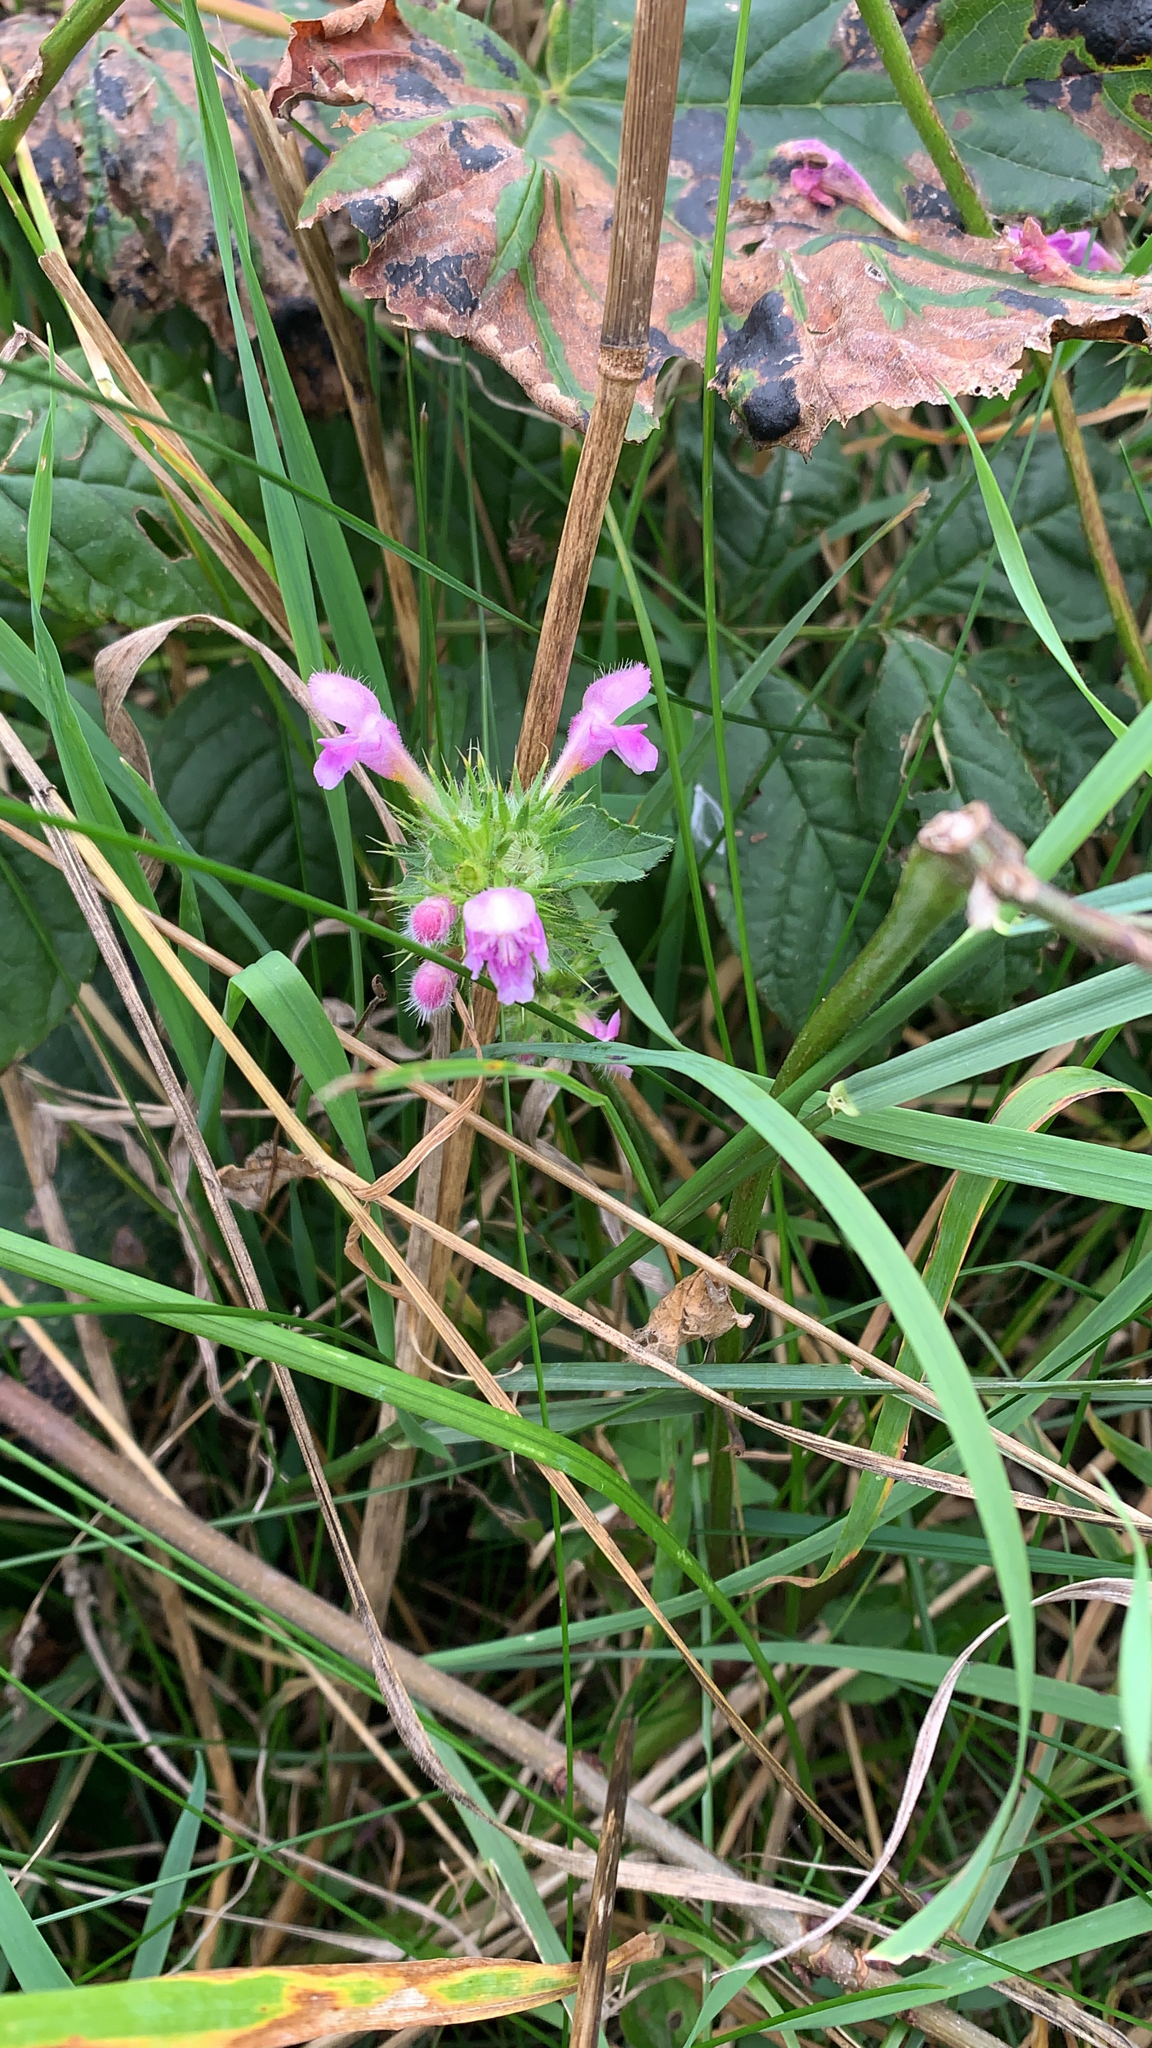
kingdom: Plantae
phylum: Tracheophyta
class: Magnoliopsida
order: Lamiales
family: Lamiaceae
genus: Galeopsis
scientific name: Galeopsis pubescens
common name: Downy hemp-nettle
